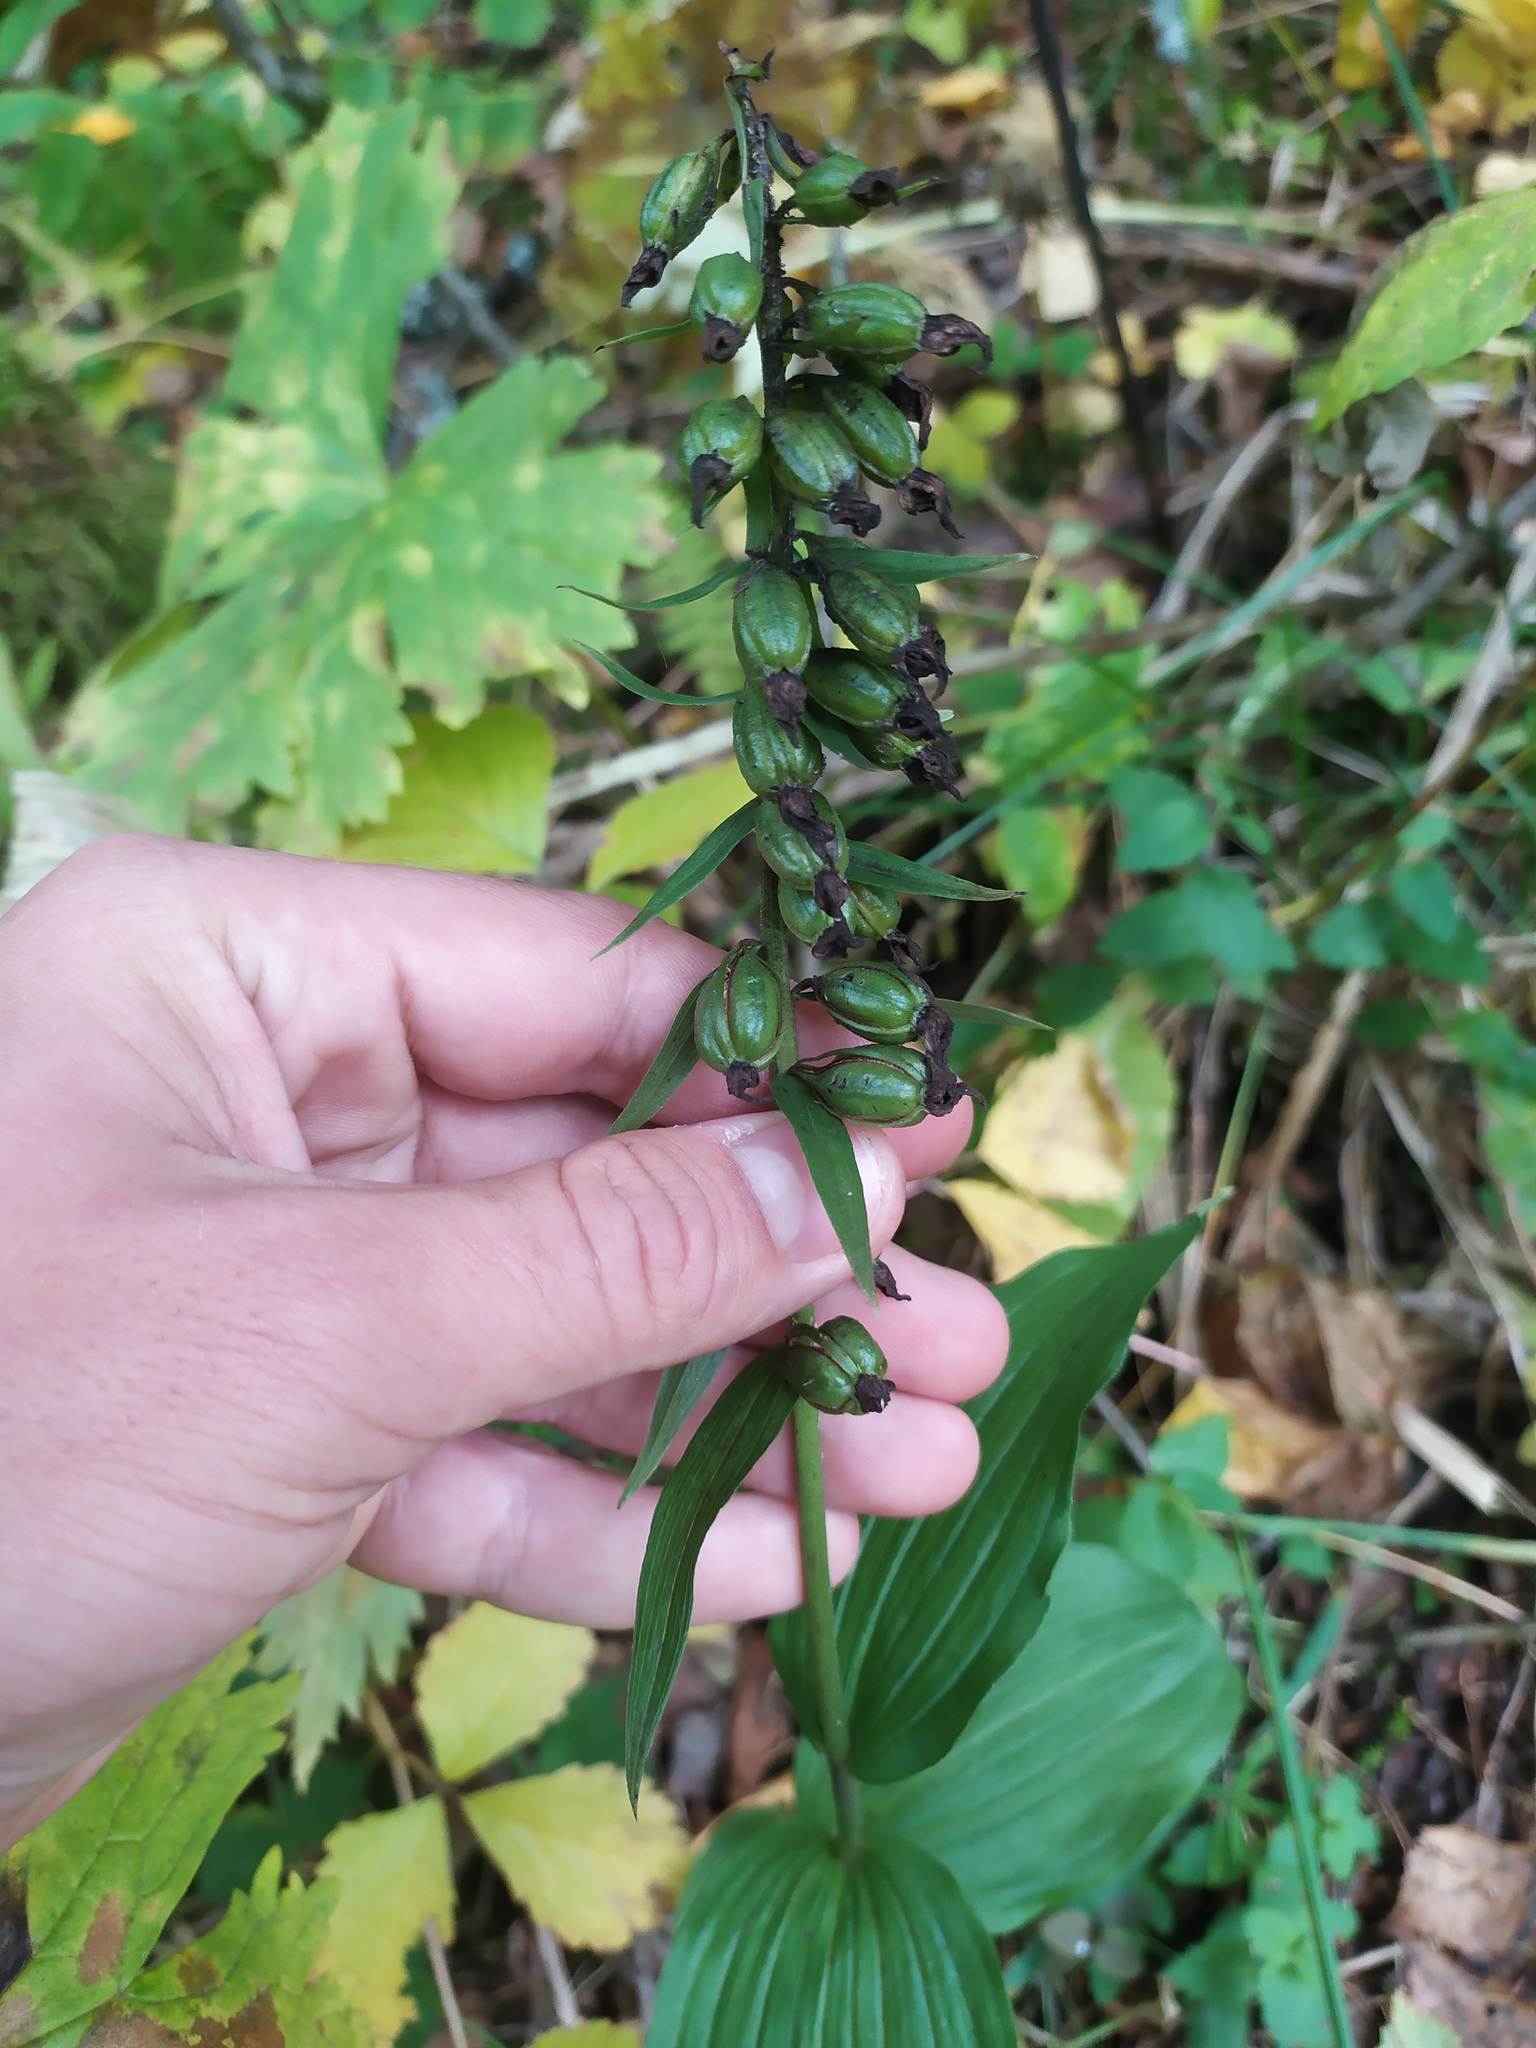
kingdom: Plantae
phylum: Tracheophyta
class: Liliopsida
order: Asparagales
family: Orchidaceae
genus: Epipactis
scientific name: Epipactis helleborine
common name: Broad-leaved helleborine
